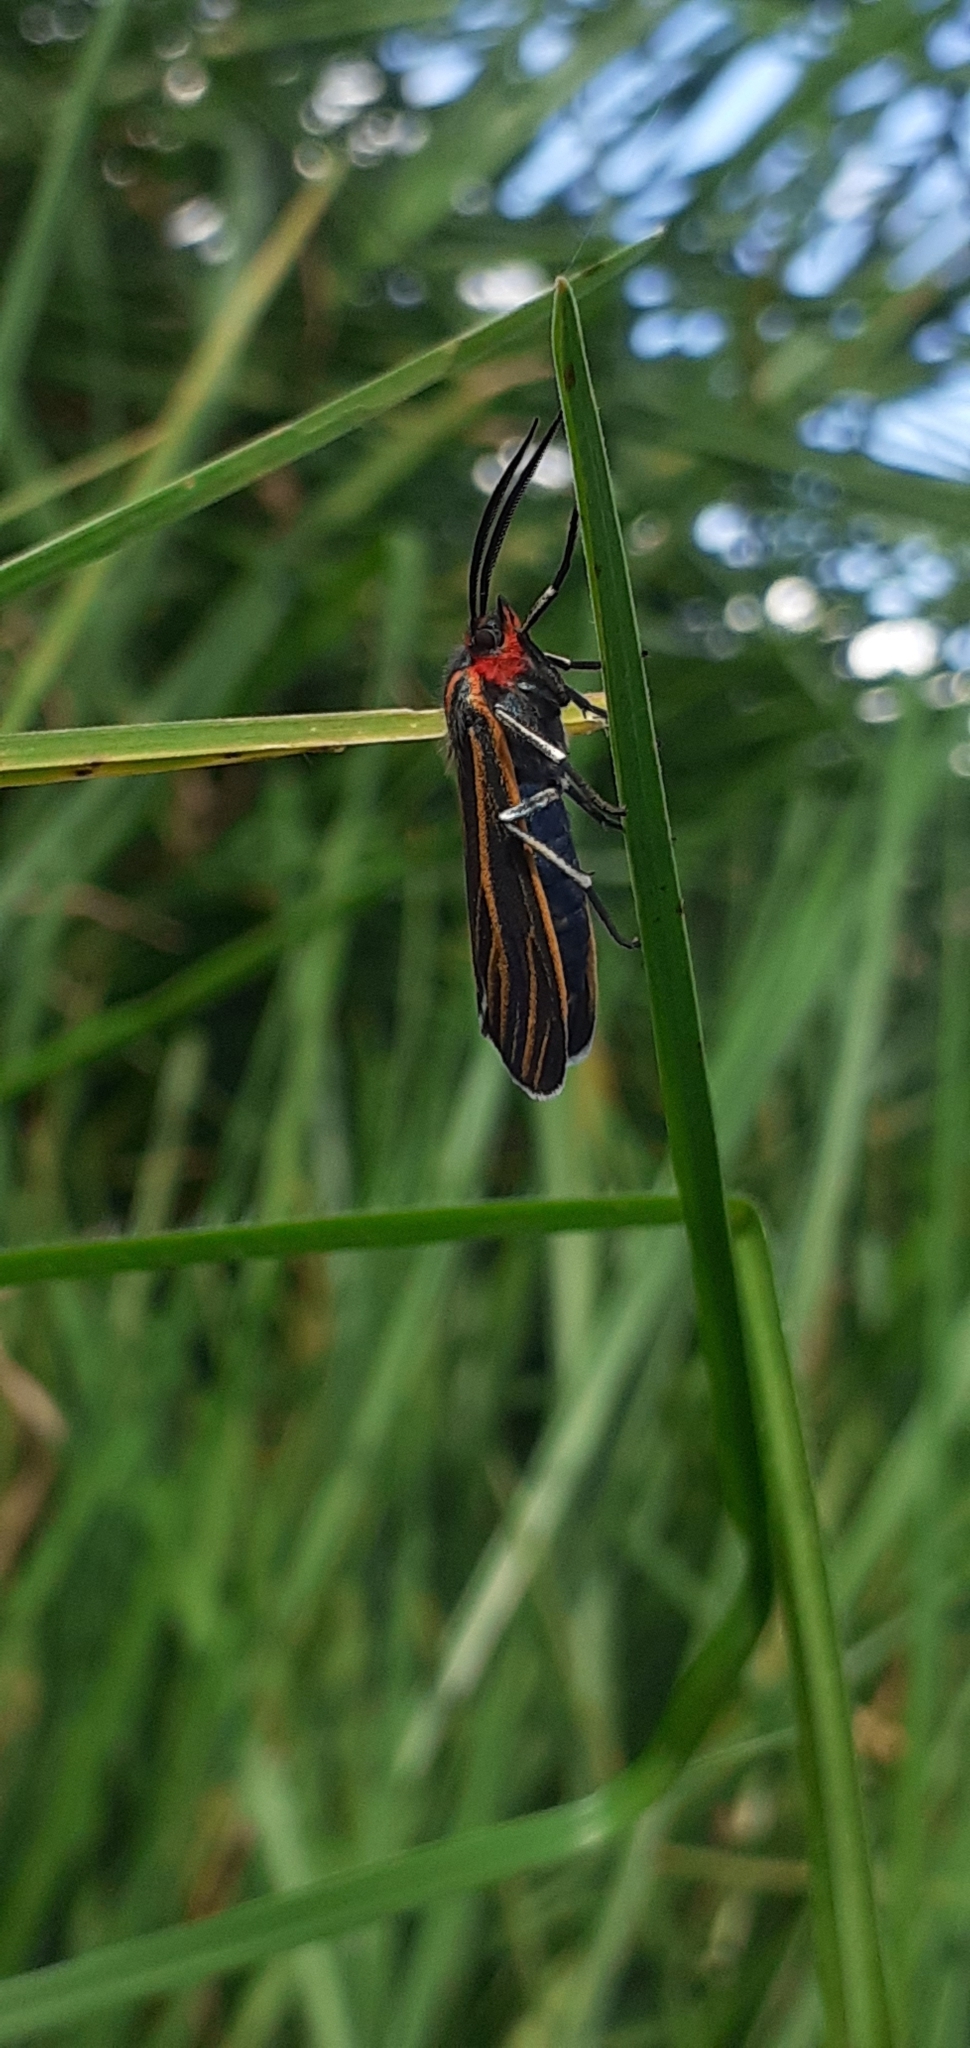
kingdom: Animalia
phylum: Arthropoda
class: Insecta
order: Lepidoptera
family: Erebidae
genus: Ctenucha
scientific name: Ctenucha venosa
